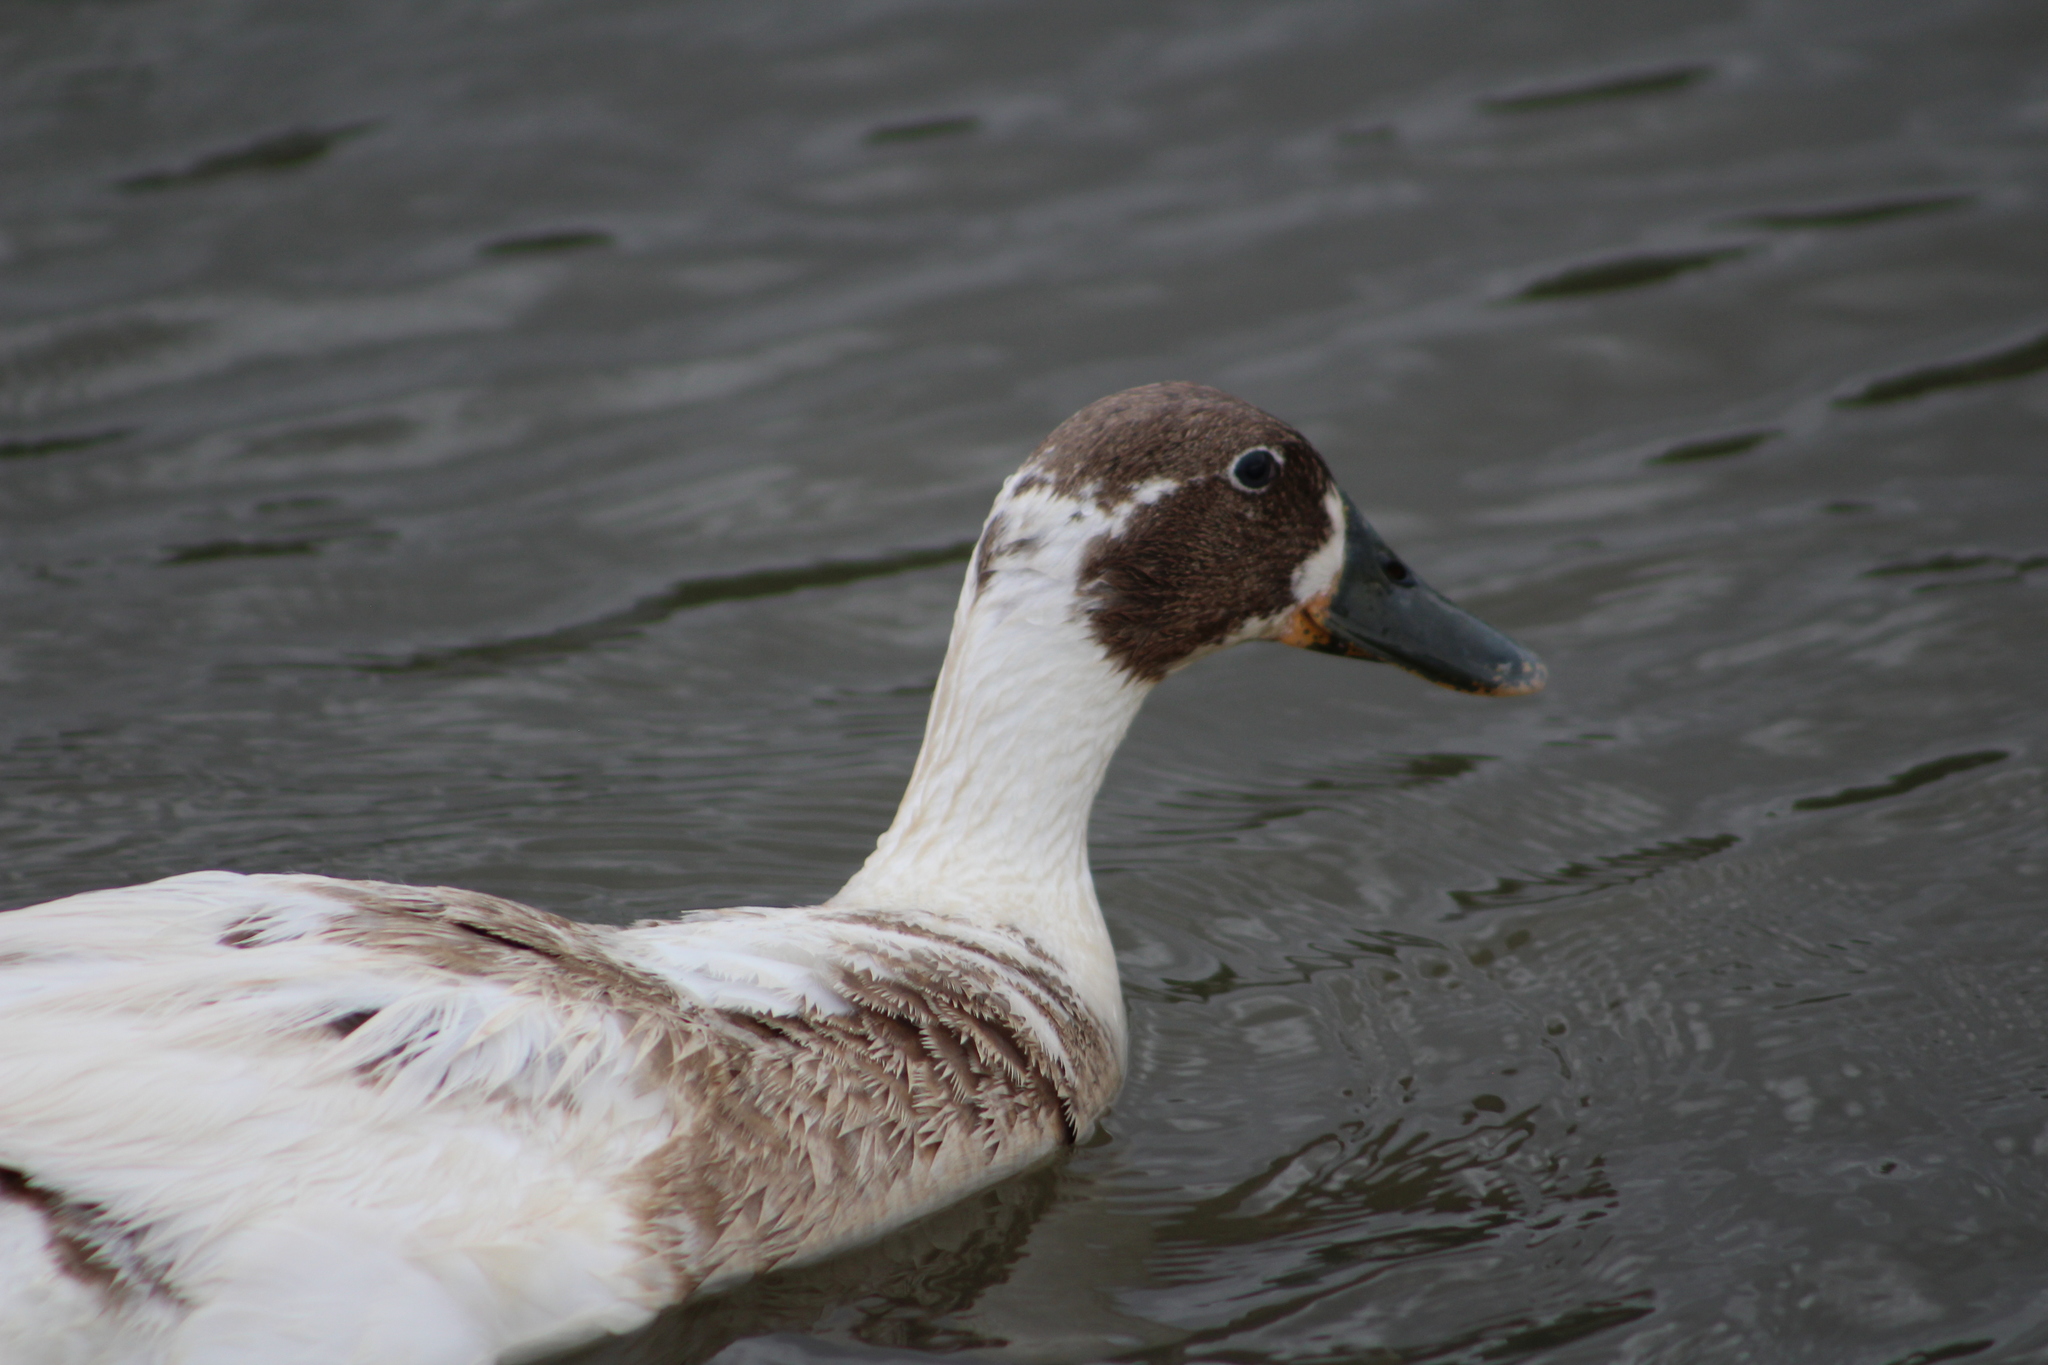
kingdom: Animalia
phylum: Chordata
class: Aves
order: Anseriformes
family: Anatidae
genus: Anas
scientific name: Anas platyrhynchos
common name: Mallard
